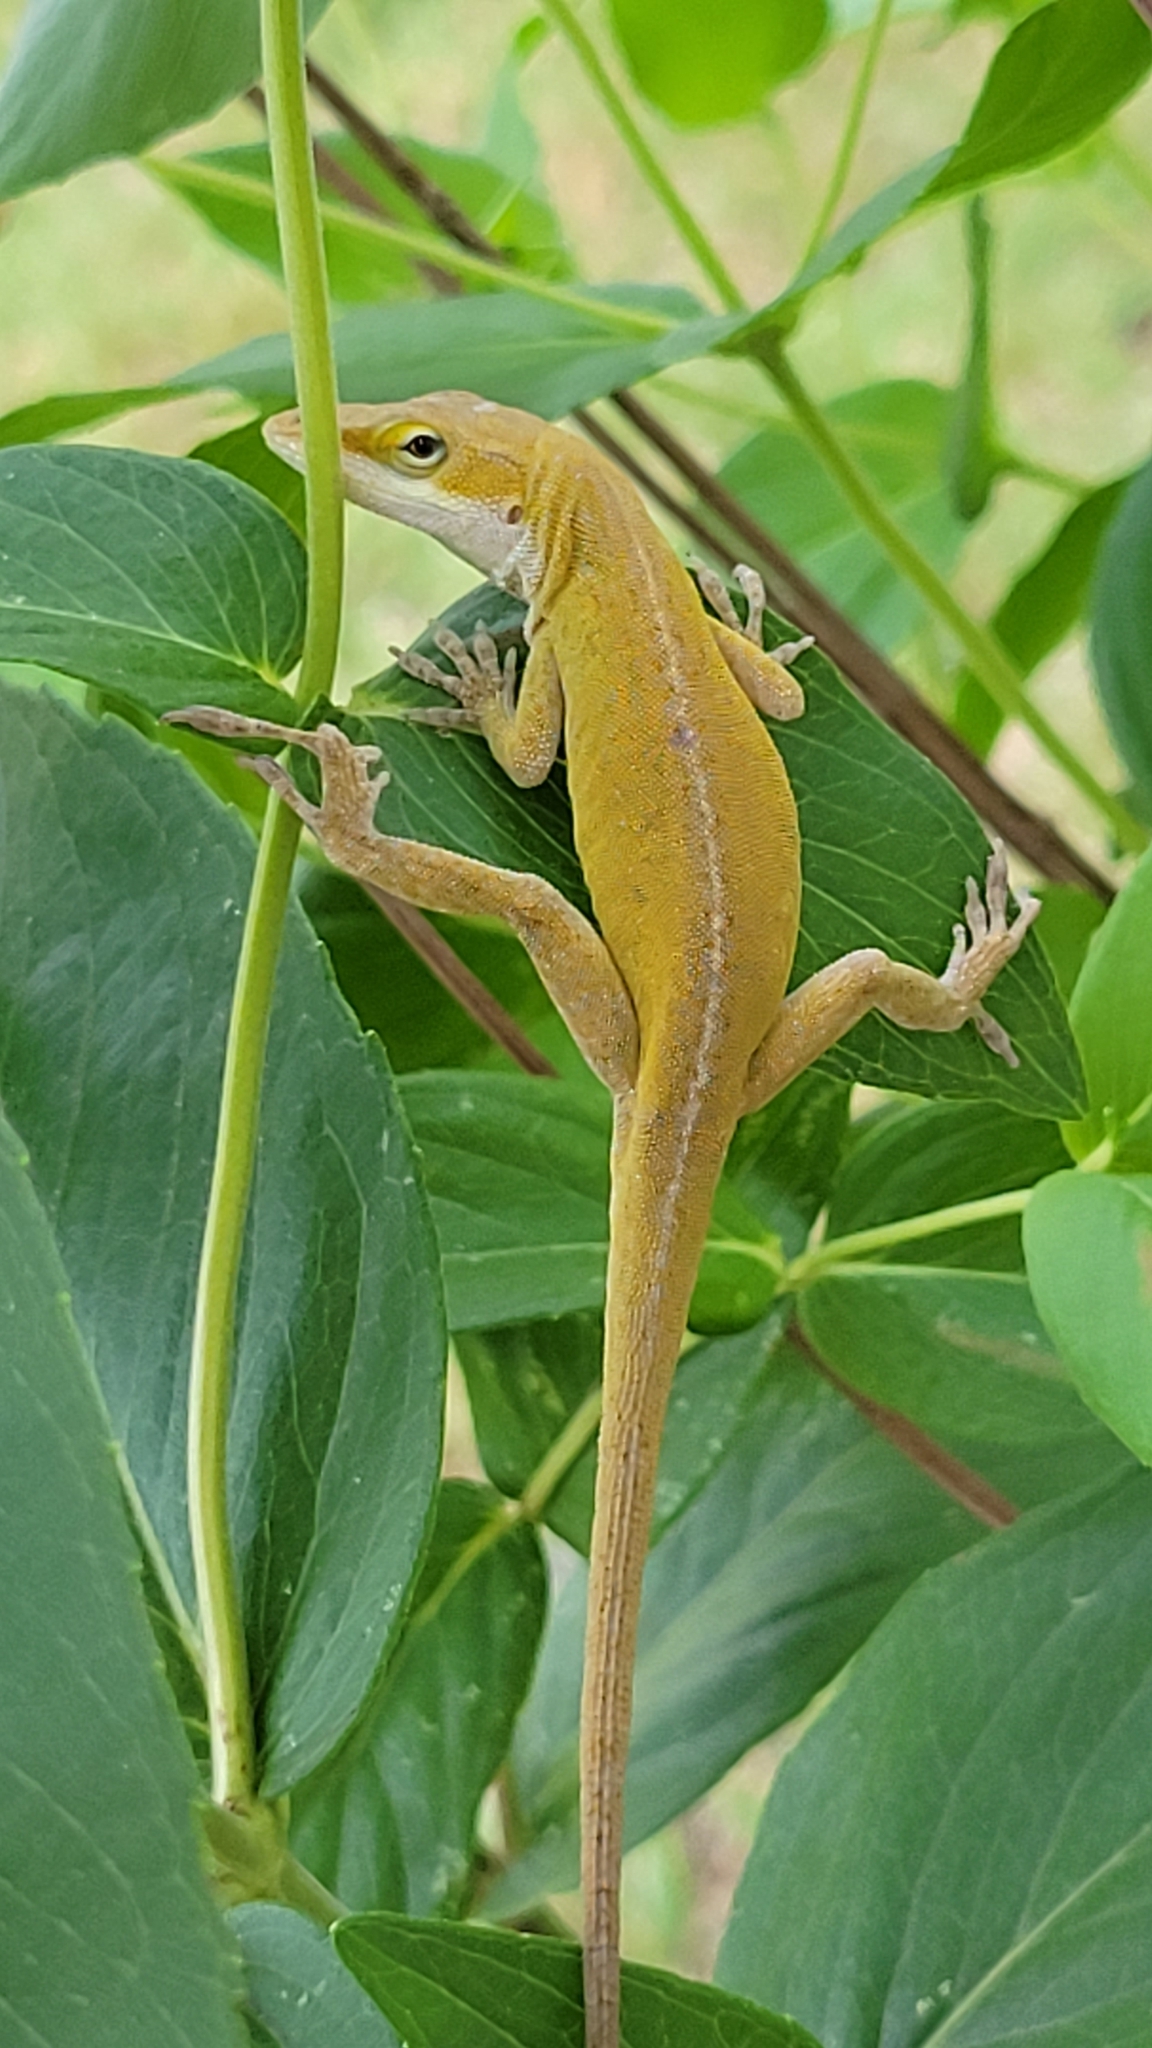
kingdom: Animalia
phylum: Chordata
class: Squamata
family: Dactyloidae
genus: Anolis
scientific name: Anolis carolinensis
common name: Green anole
